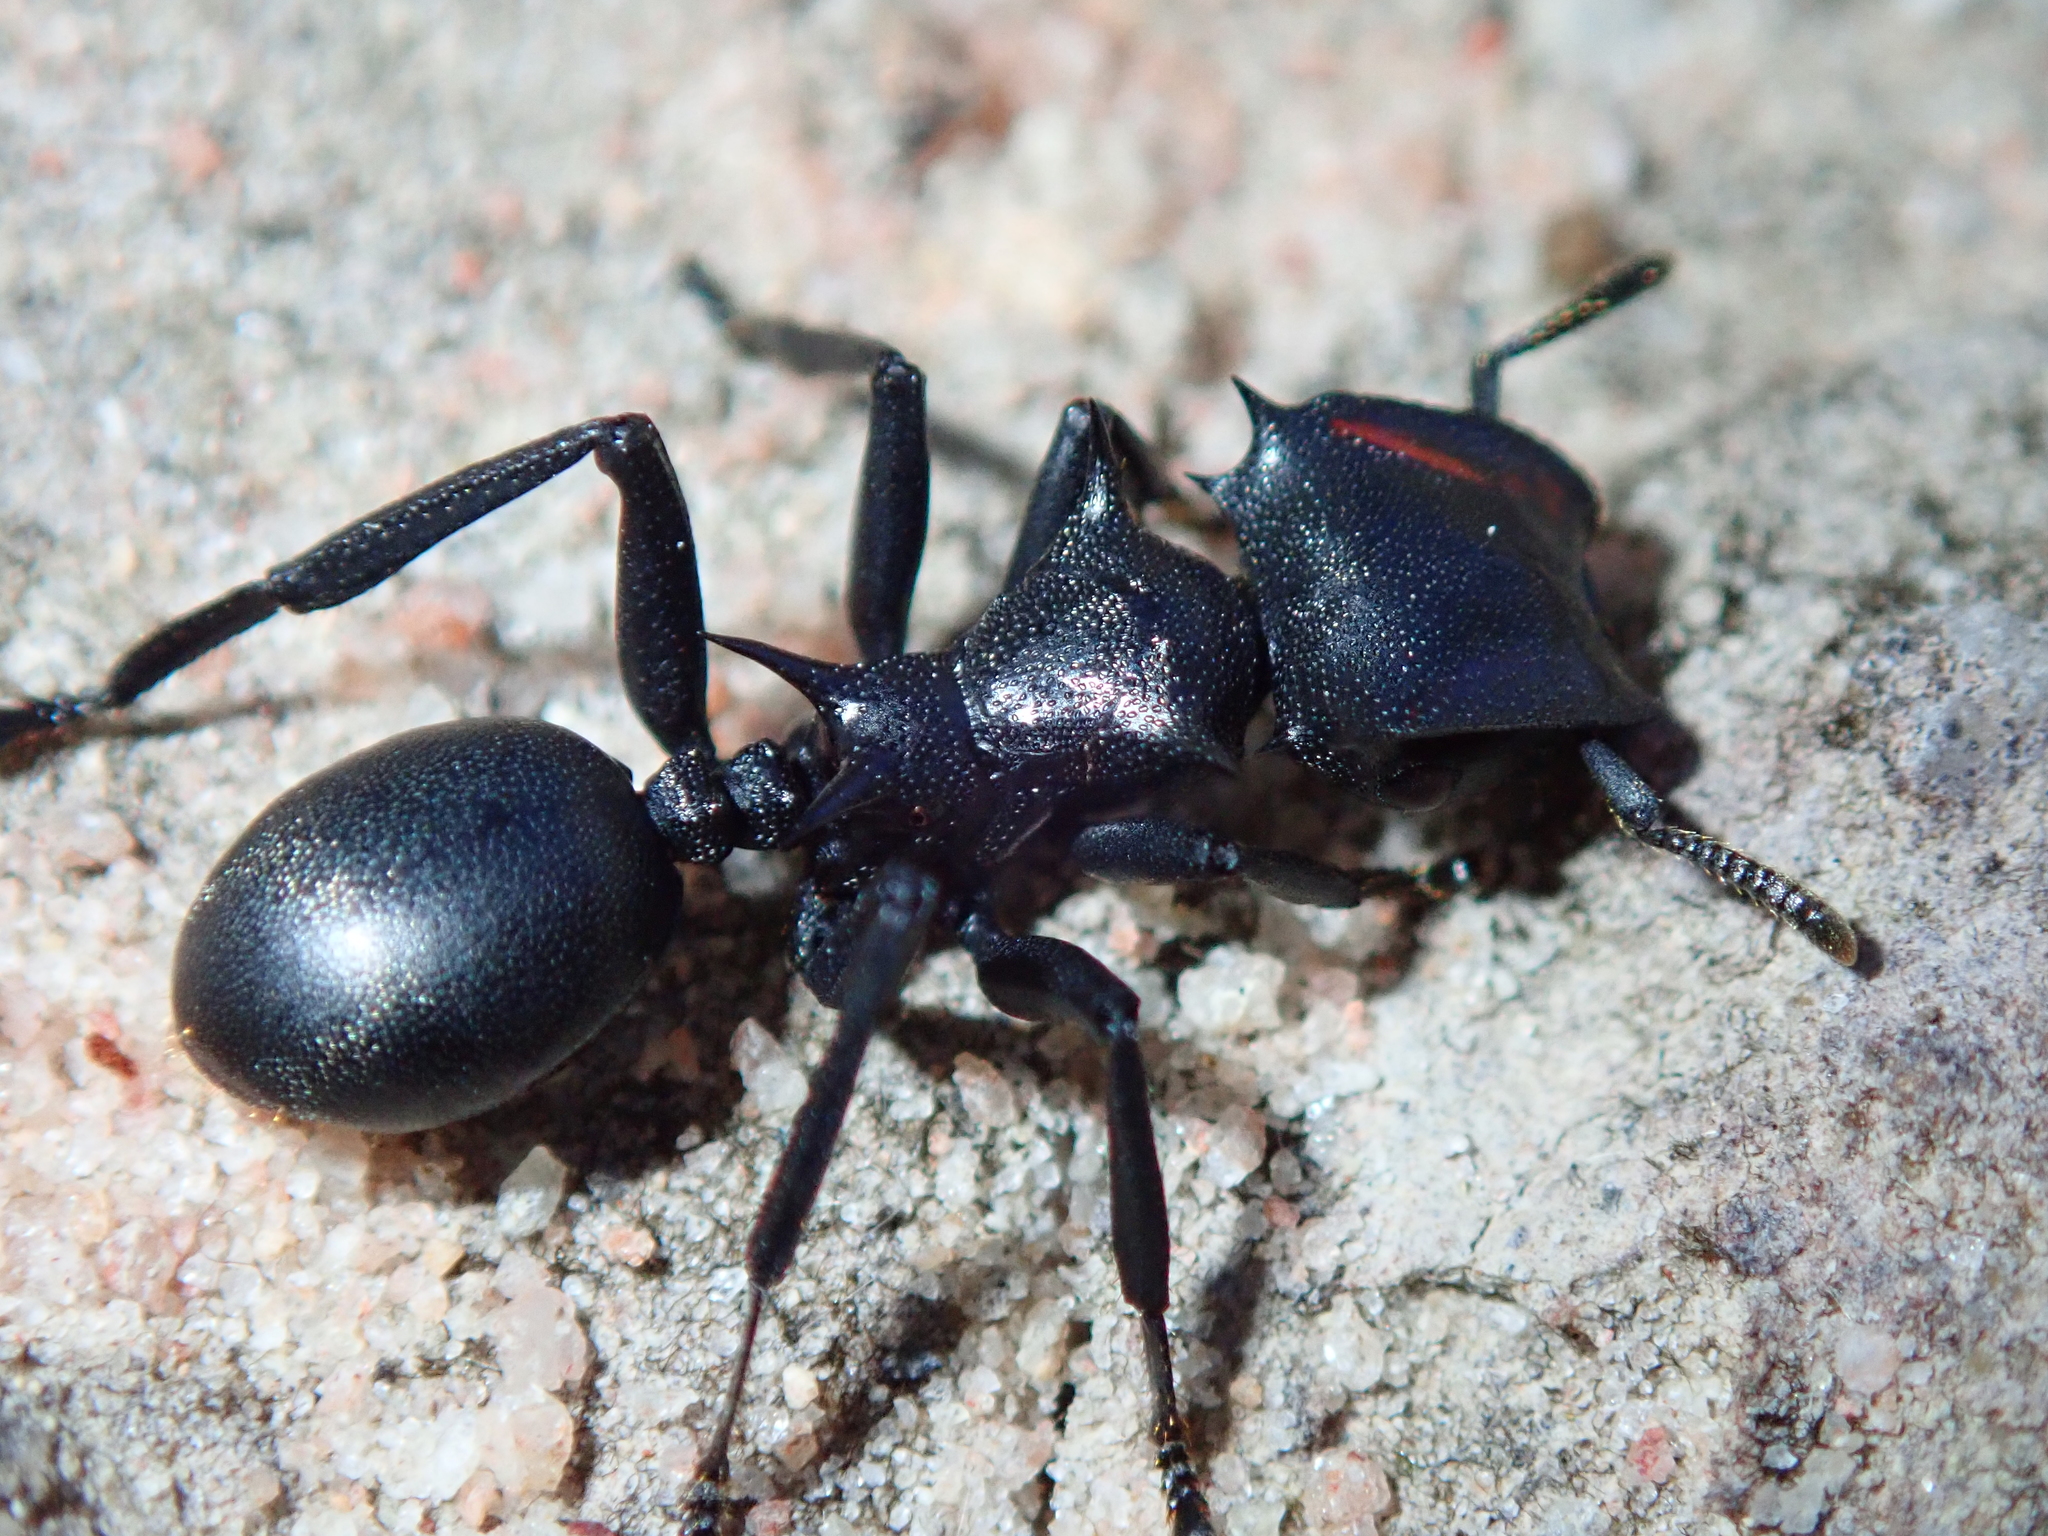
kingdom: Animalia
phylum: Arthropoda
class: Insecta
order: Hymenoptera
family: Formicidae
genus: Cephalotes
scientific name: Cephalotes atratus
